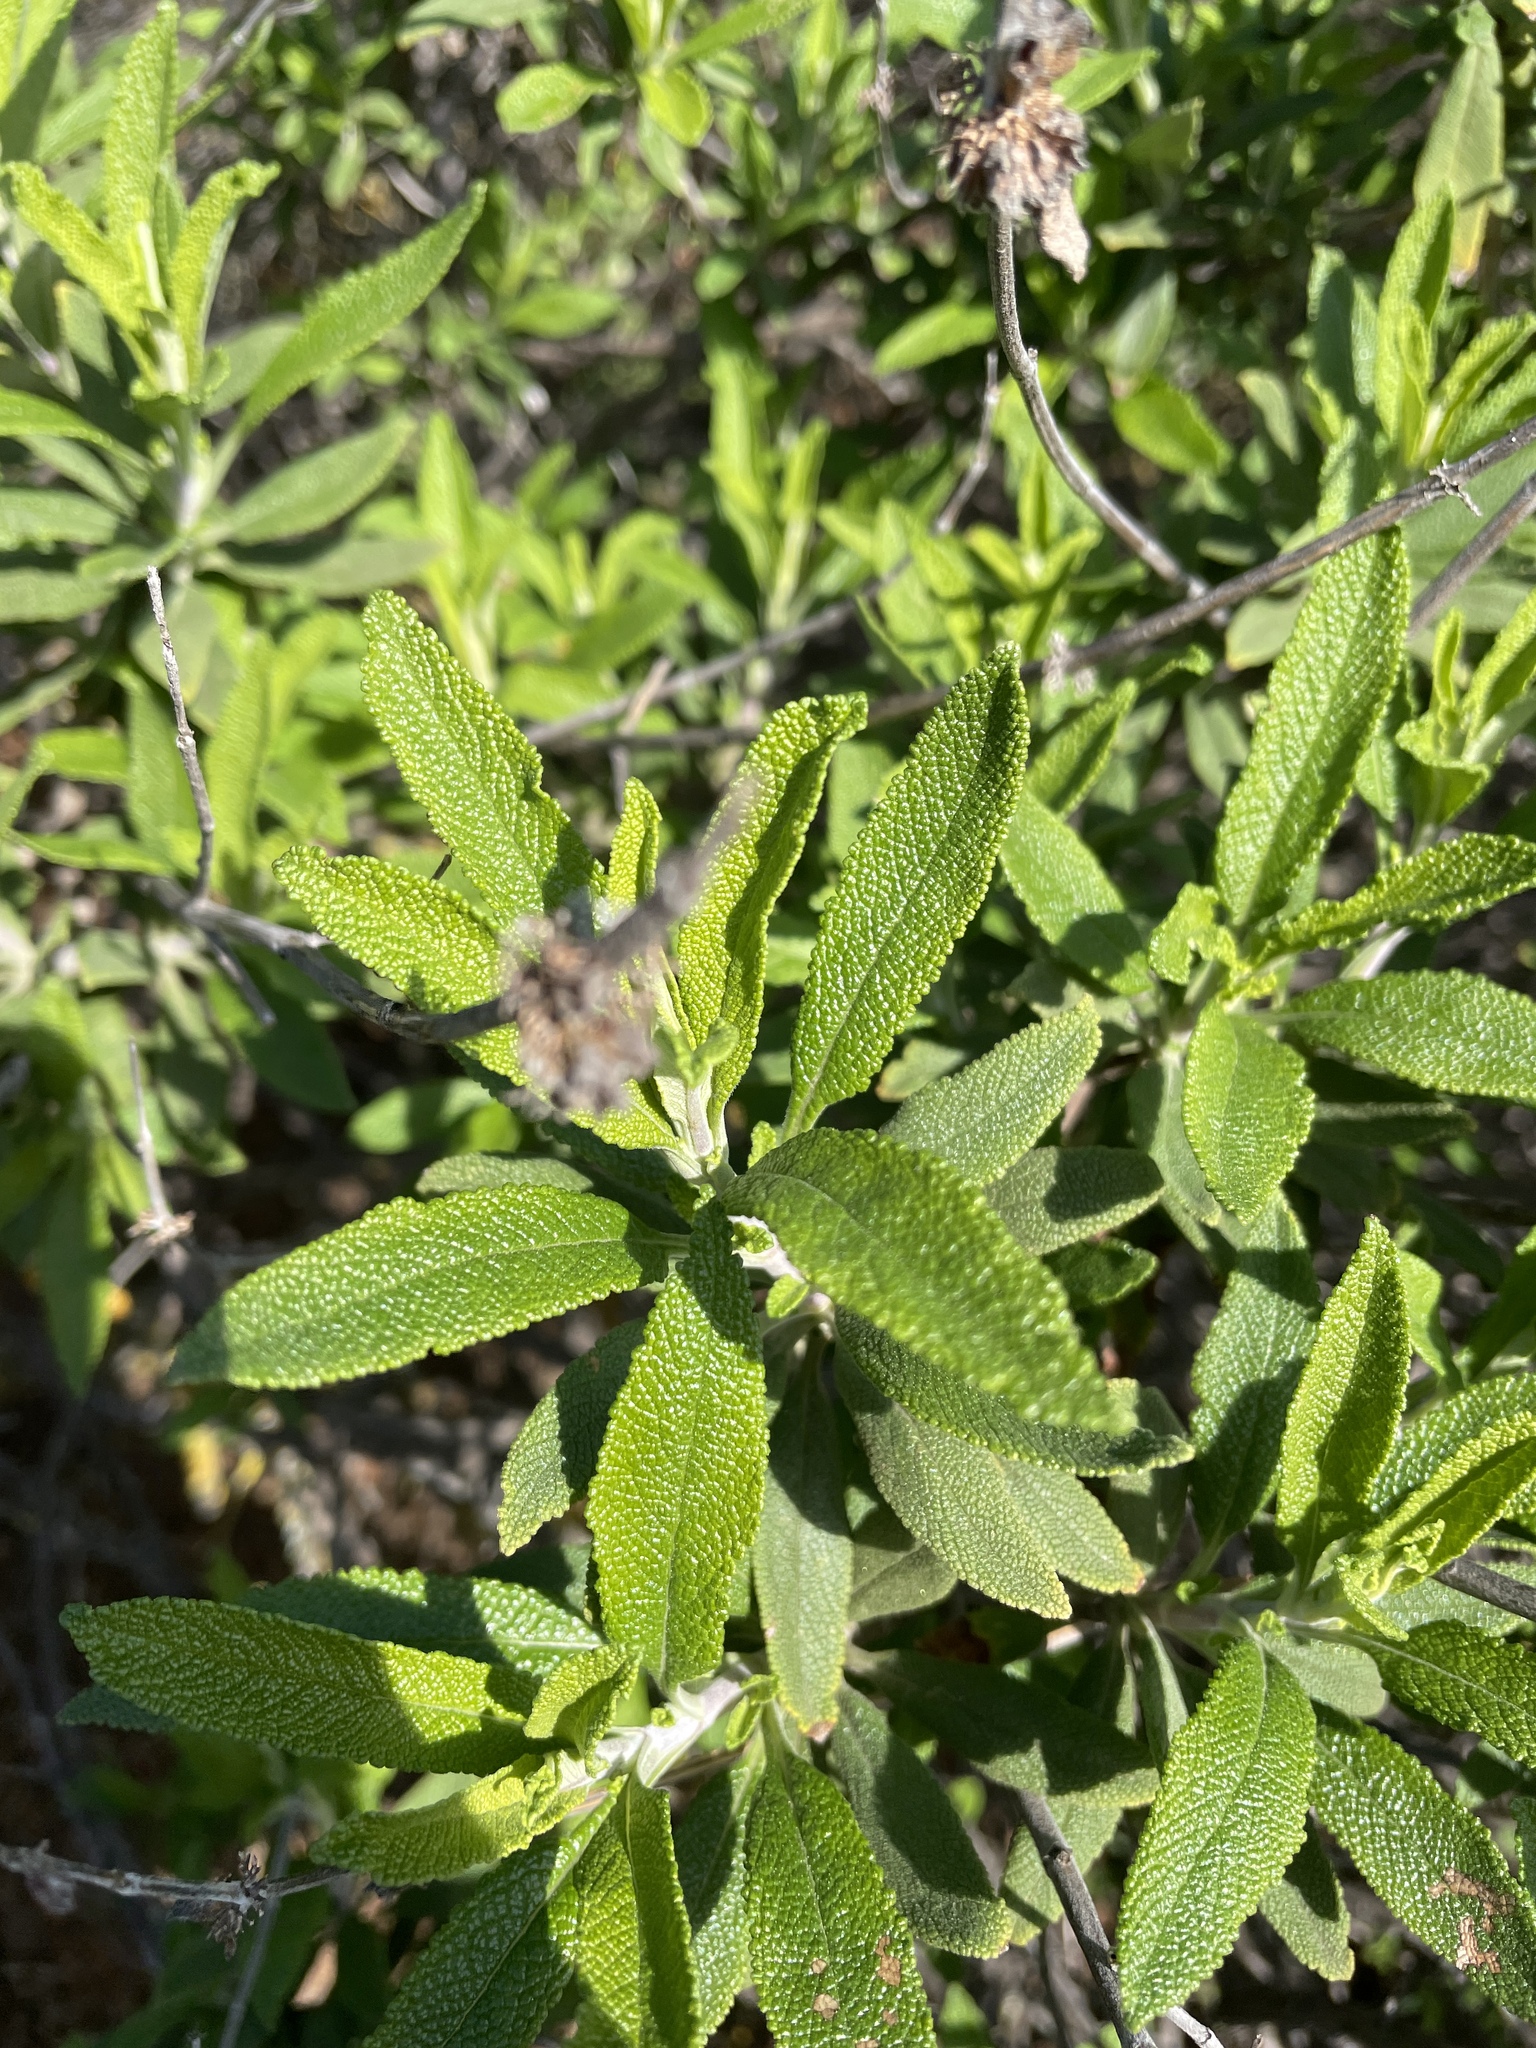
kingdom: Plantae
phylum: Tracheophyta
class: Magnoliopsida
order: Lamiales
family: Lamiaceae
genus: Salvia
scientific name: Salvia mellifera
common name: Black sage
